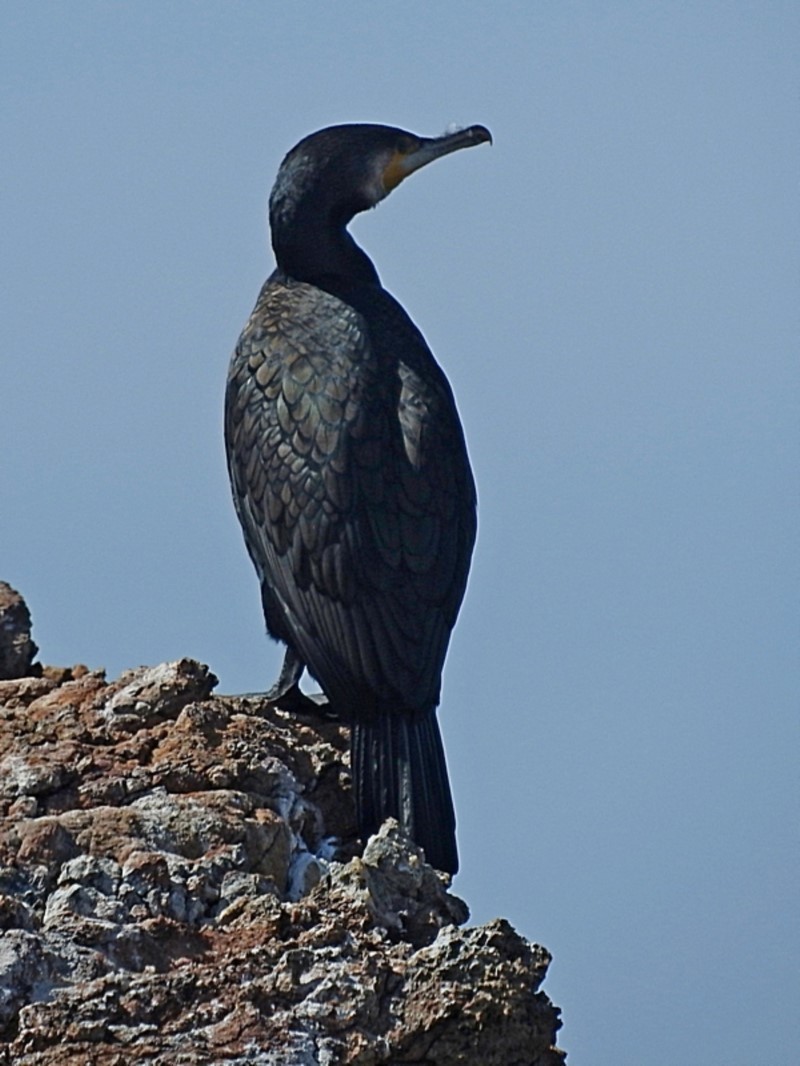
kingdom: Animalia
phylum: Chordata
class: Aves
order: Suliformes
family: Phalacrocoracidae
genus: Phalacrocorax
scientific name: Phalacrocorax carbo
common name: Great cormorant
